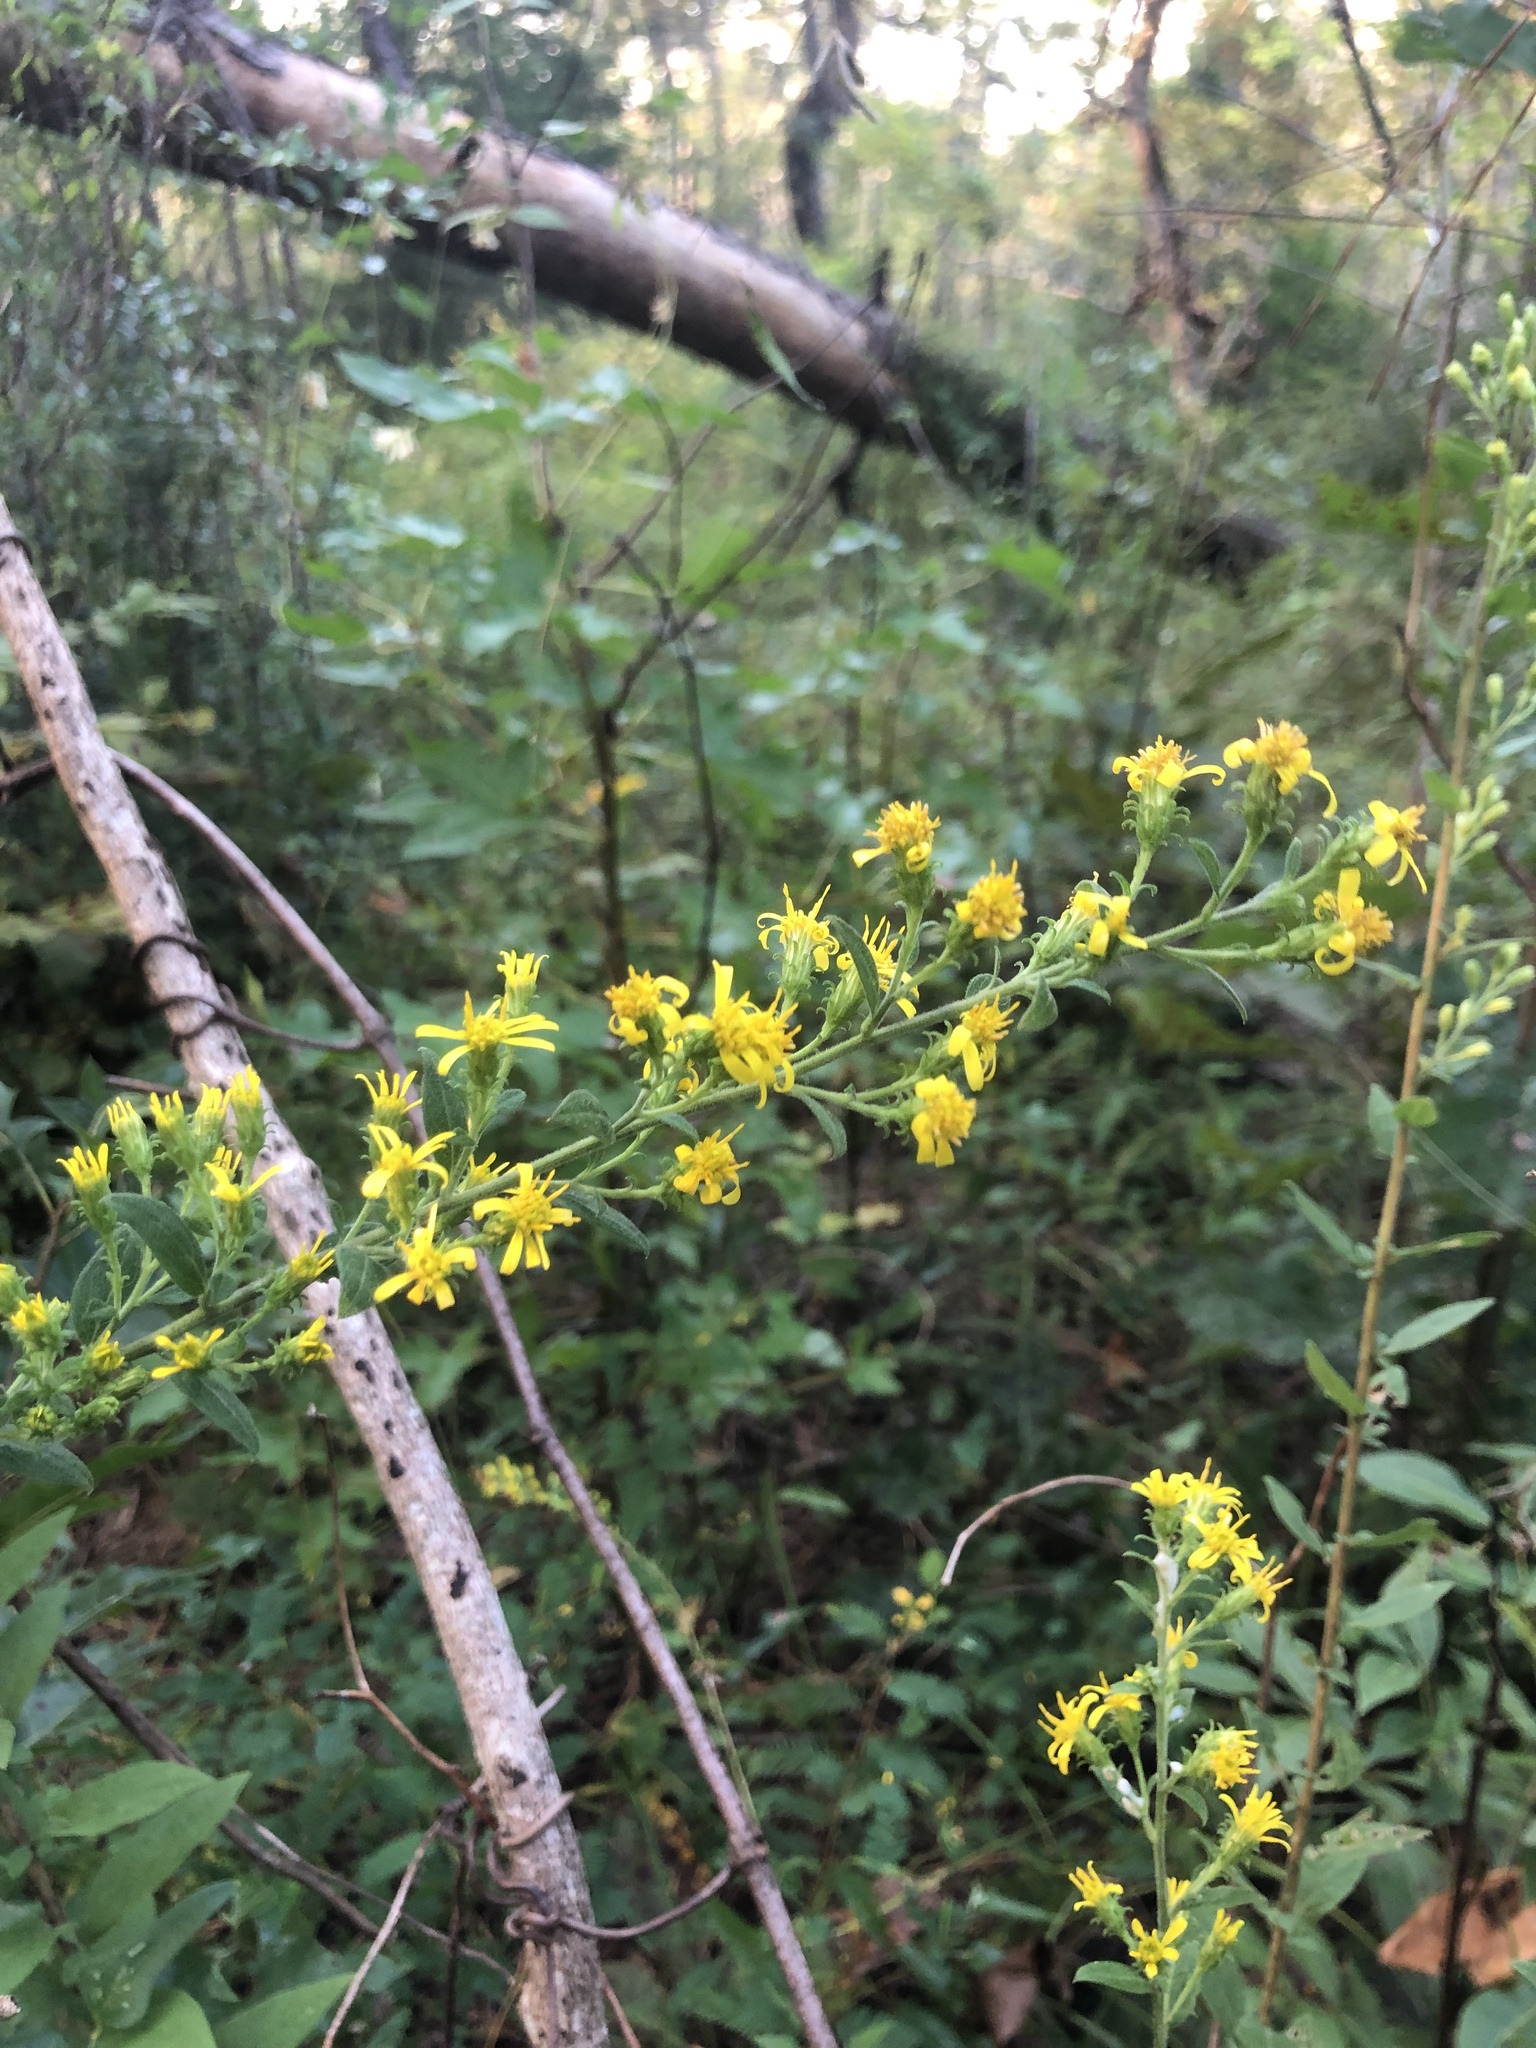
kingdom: Plantae
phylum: Tracheophyta
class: Magnoliopsida
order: Asterales
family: Asteraceae
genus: Solidago
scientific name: Solidago petiolaris
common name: Downy ragged goldenrod
